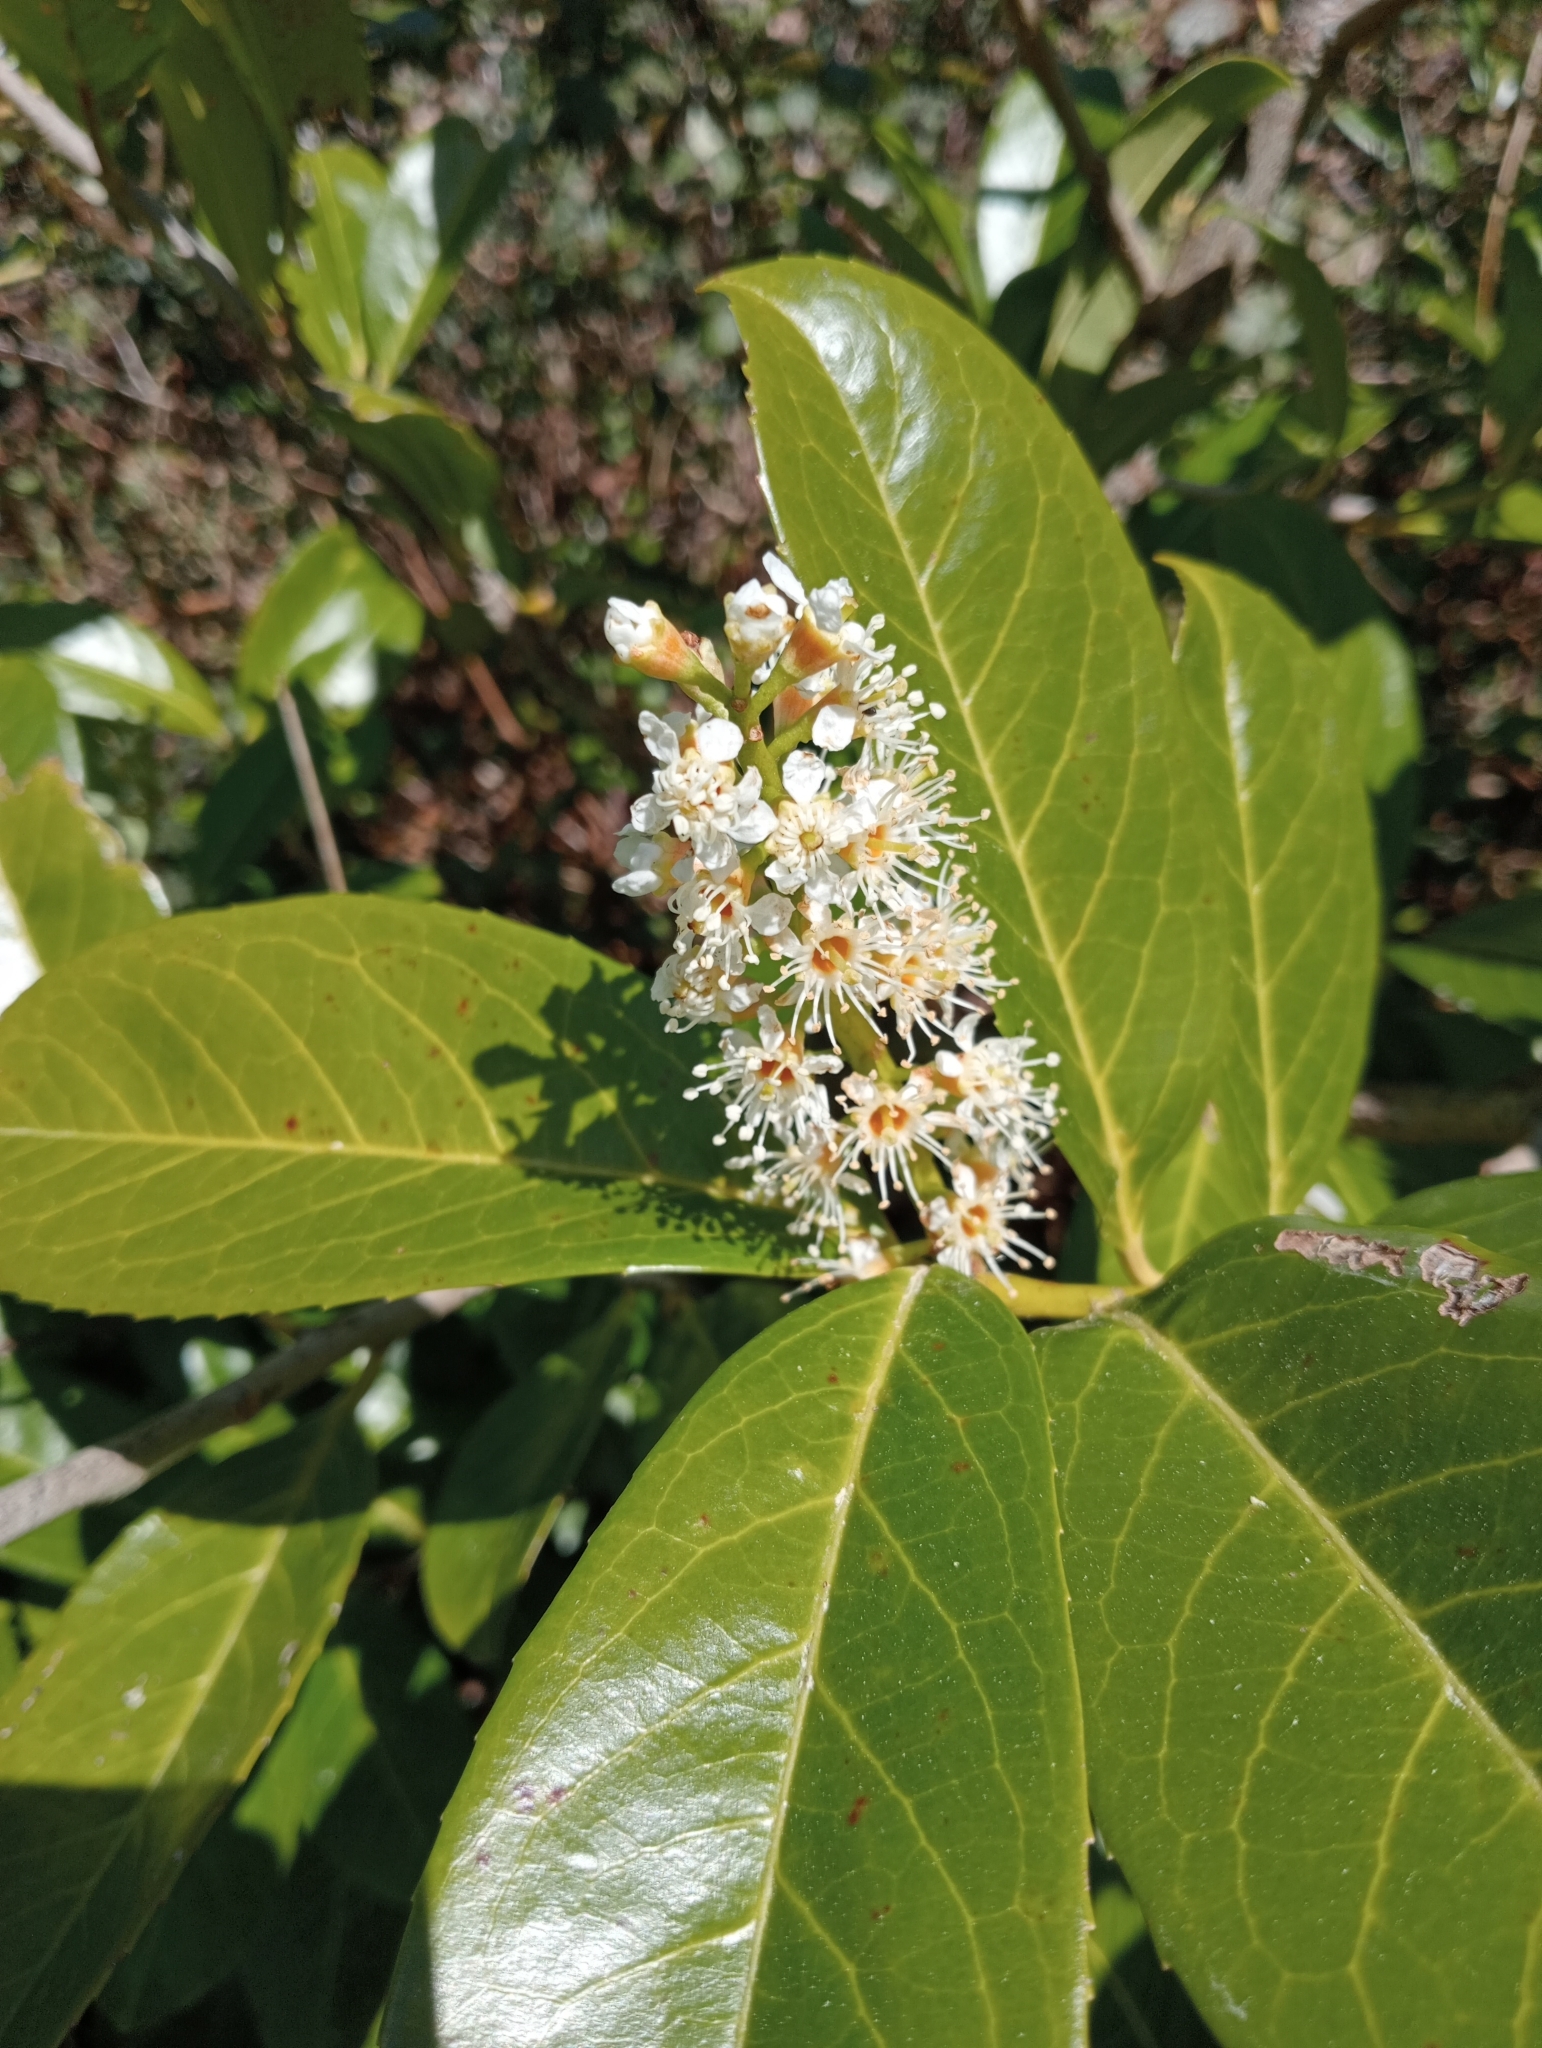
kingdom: Plantae
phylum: Tracheophyta
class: Magnoliopsida
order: Rosales
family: Rosaceae
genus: Prunus
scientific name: Prunus laurocerasus
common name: Cherry laurel
